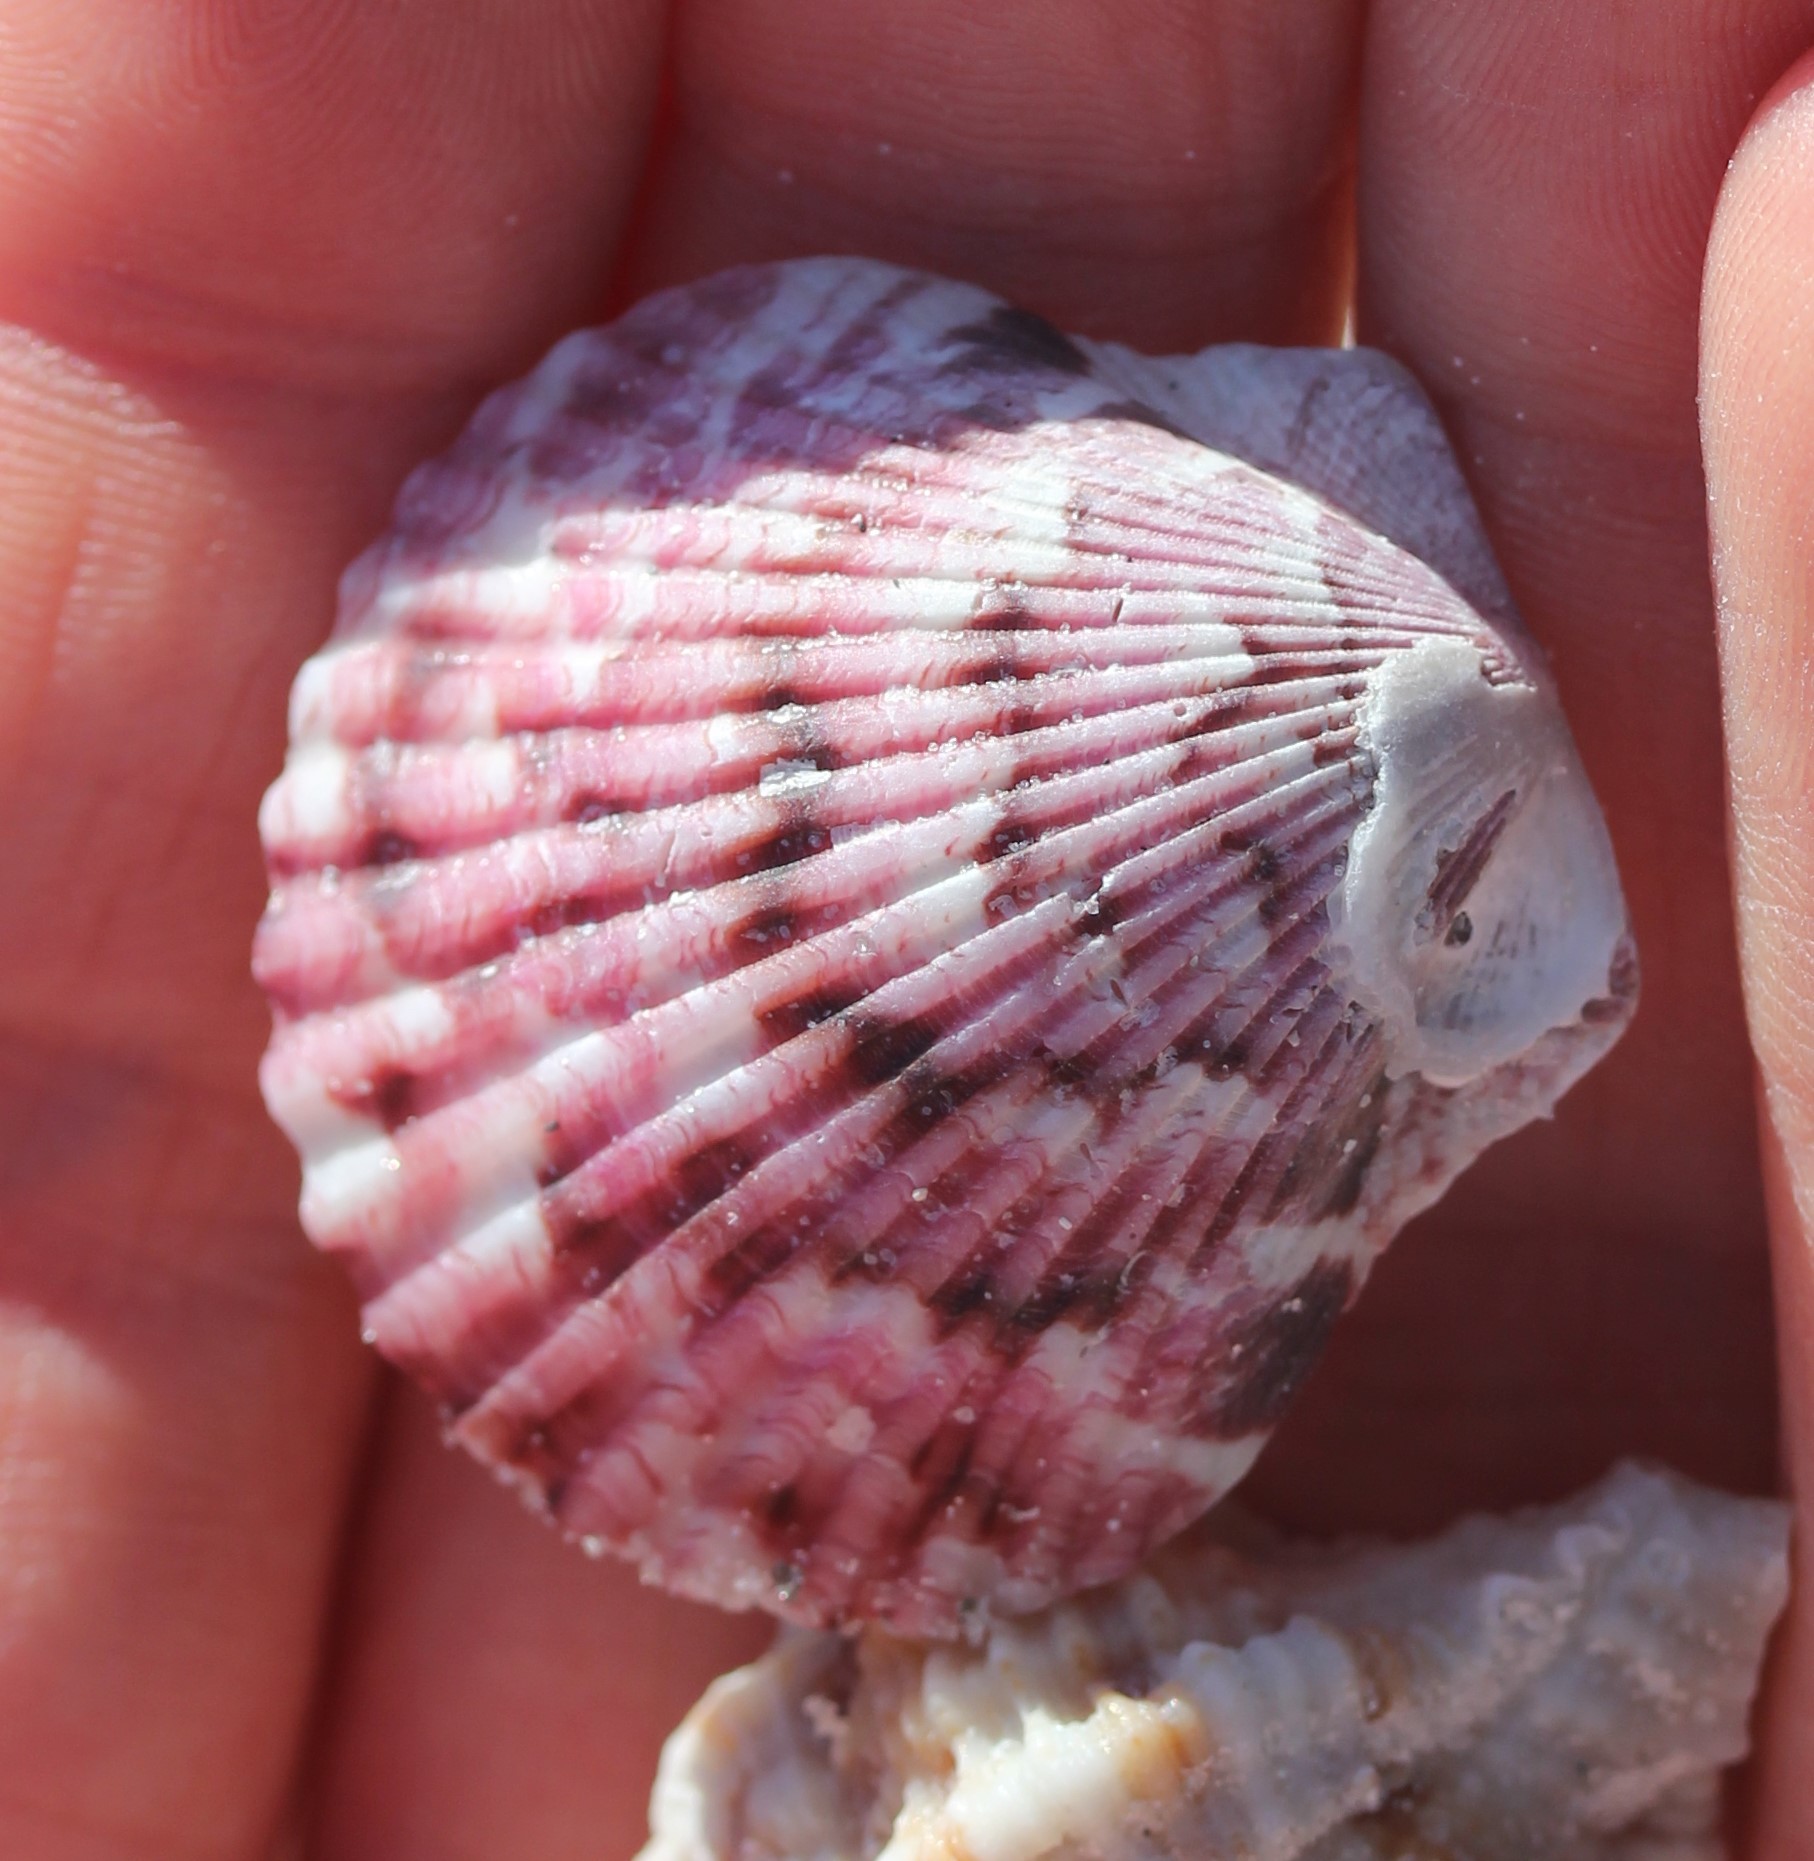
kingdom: Animalia
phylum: Mollusca
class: Bivalvia
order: Pectinida
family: Pectinidae
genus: Argopecten
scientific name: Argopecten gibbus
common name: Atlantic calico scallop
